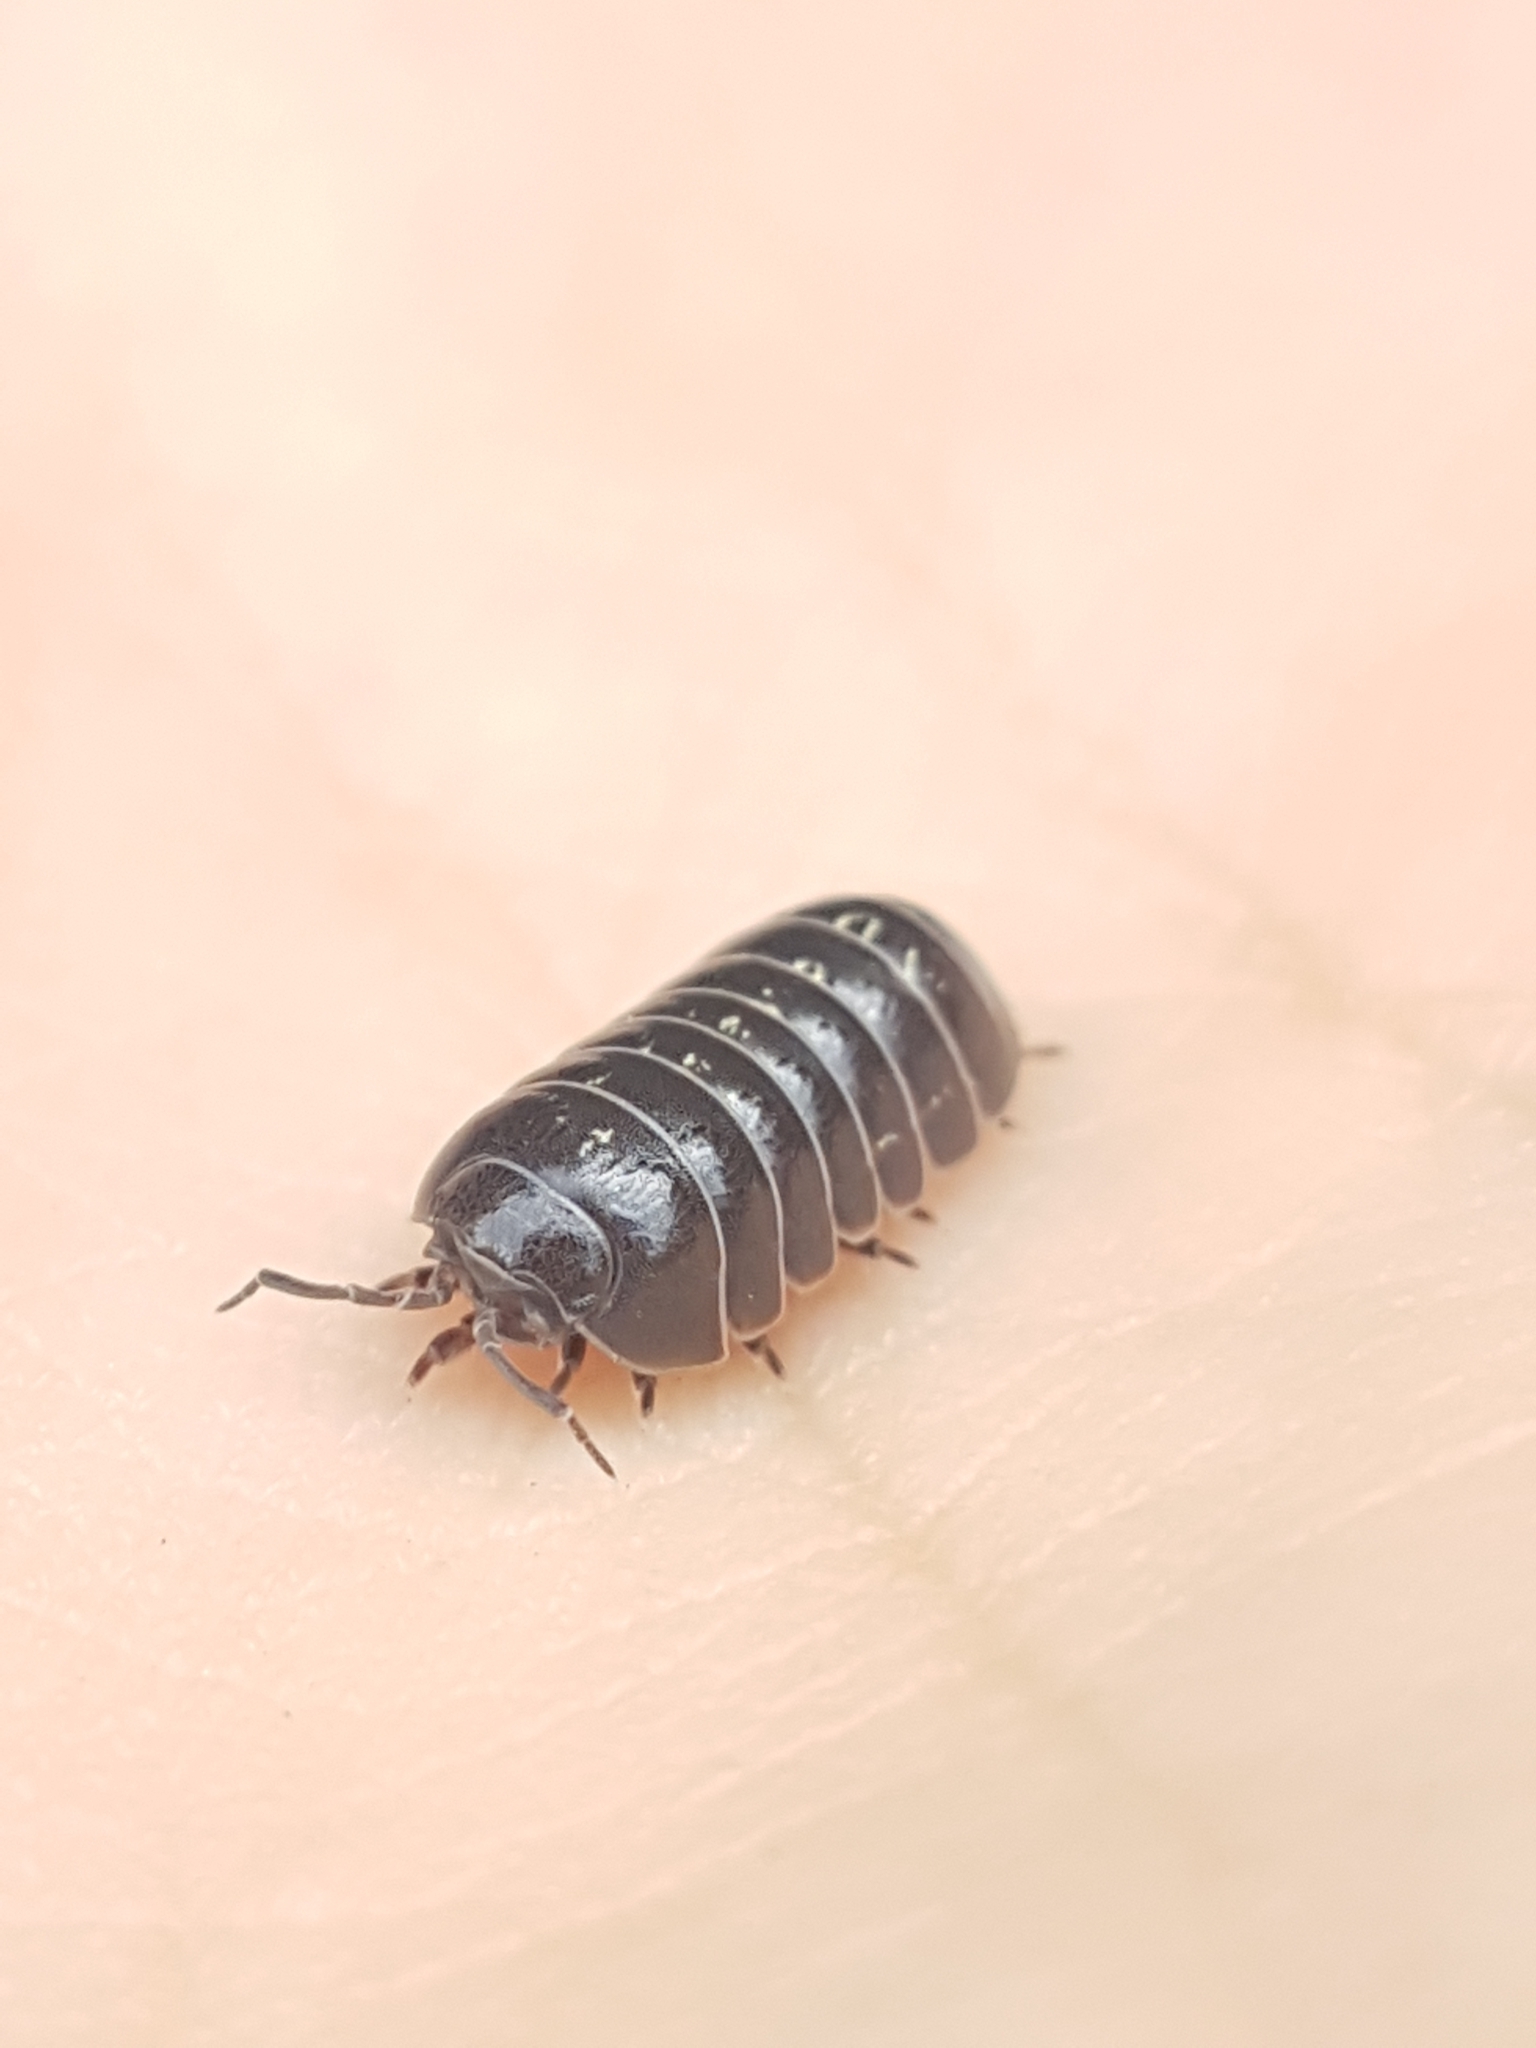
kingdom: Animalia
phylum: Arthropoda
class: Malacostraca
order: Isopoda
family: Armadillidiidae
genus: Armadillidium
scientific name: Armadillidium vulgare
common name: Common pill woodlouse
